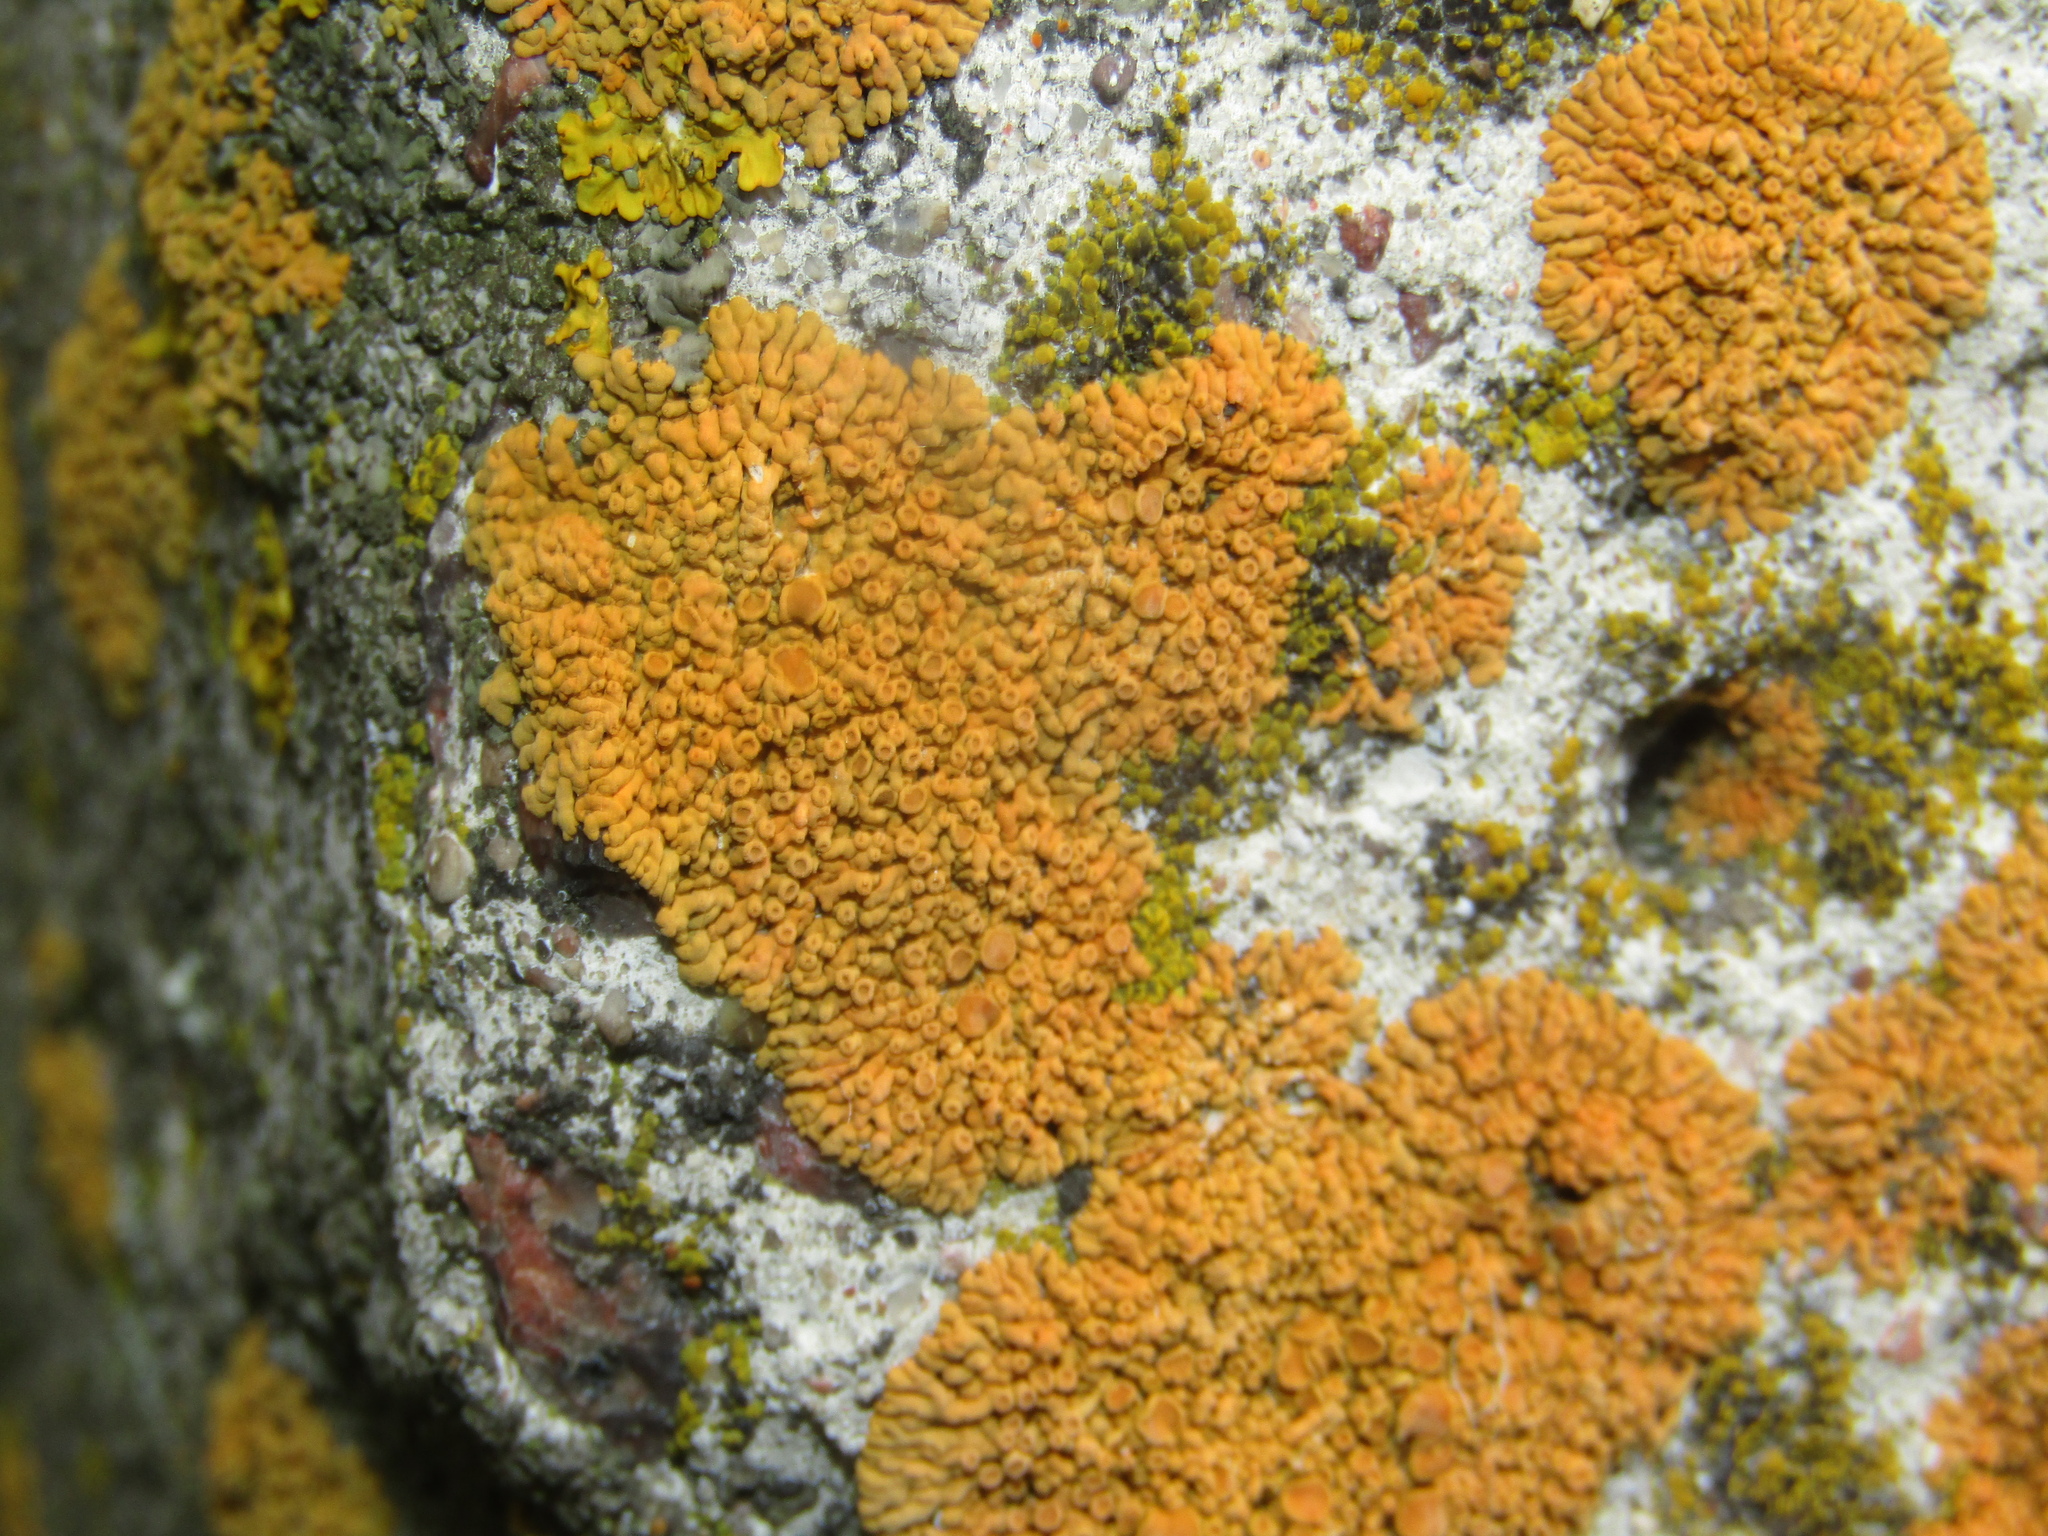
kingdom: Fungi
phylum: Ascomycota
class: Lecanoromycetes
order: Teloschistales
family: Teloschistaceae
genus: Xanthoria
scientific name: Xanthoria elegans
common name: Elegant sunburst lichen
